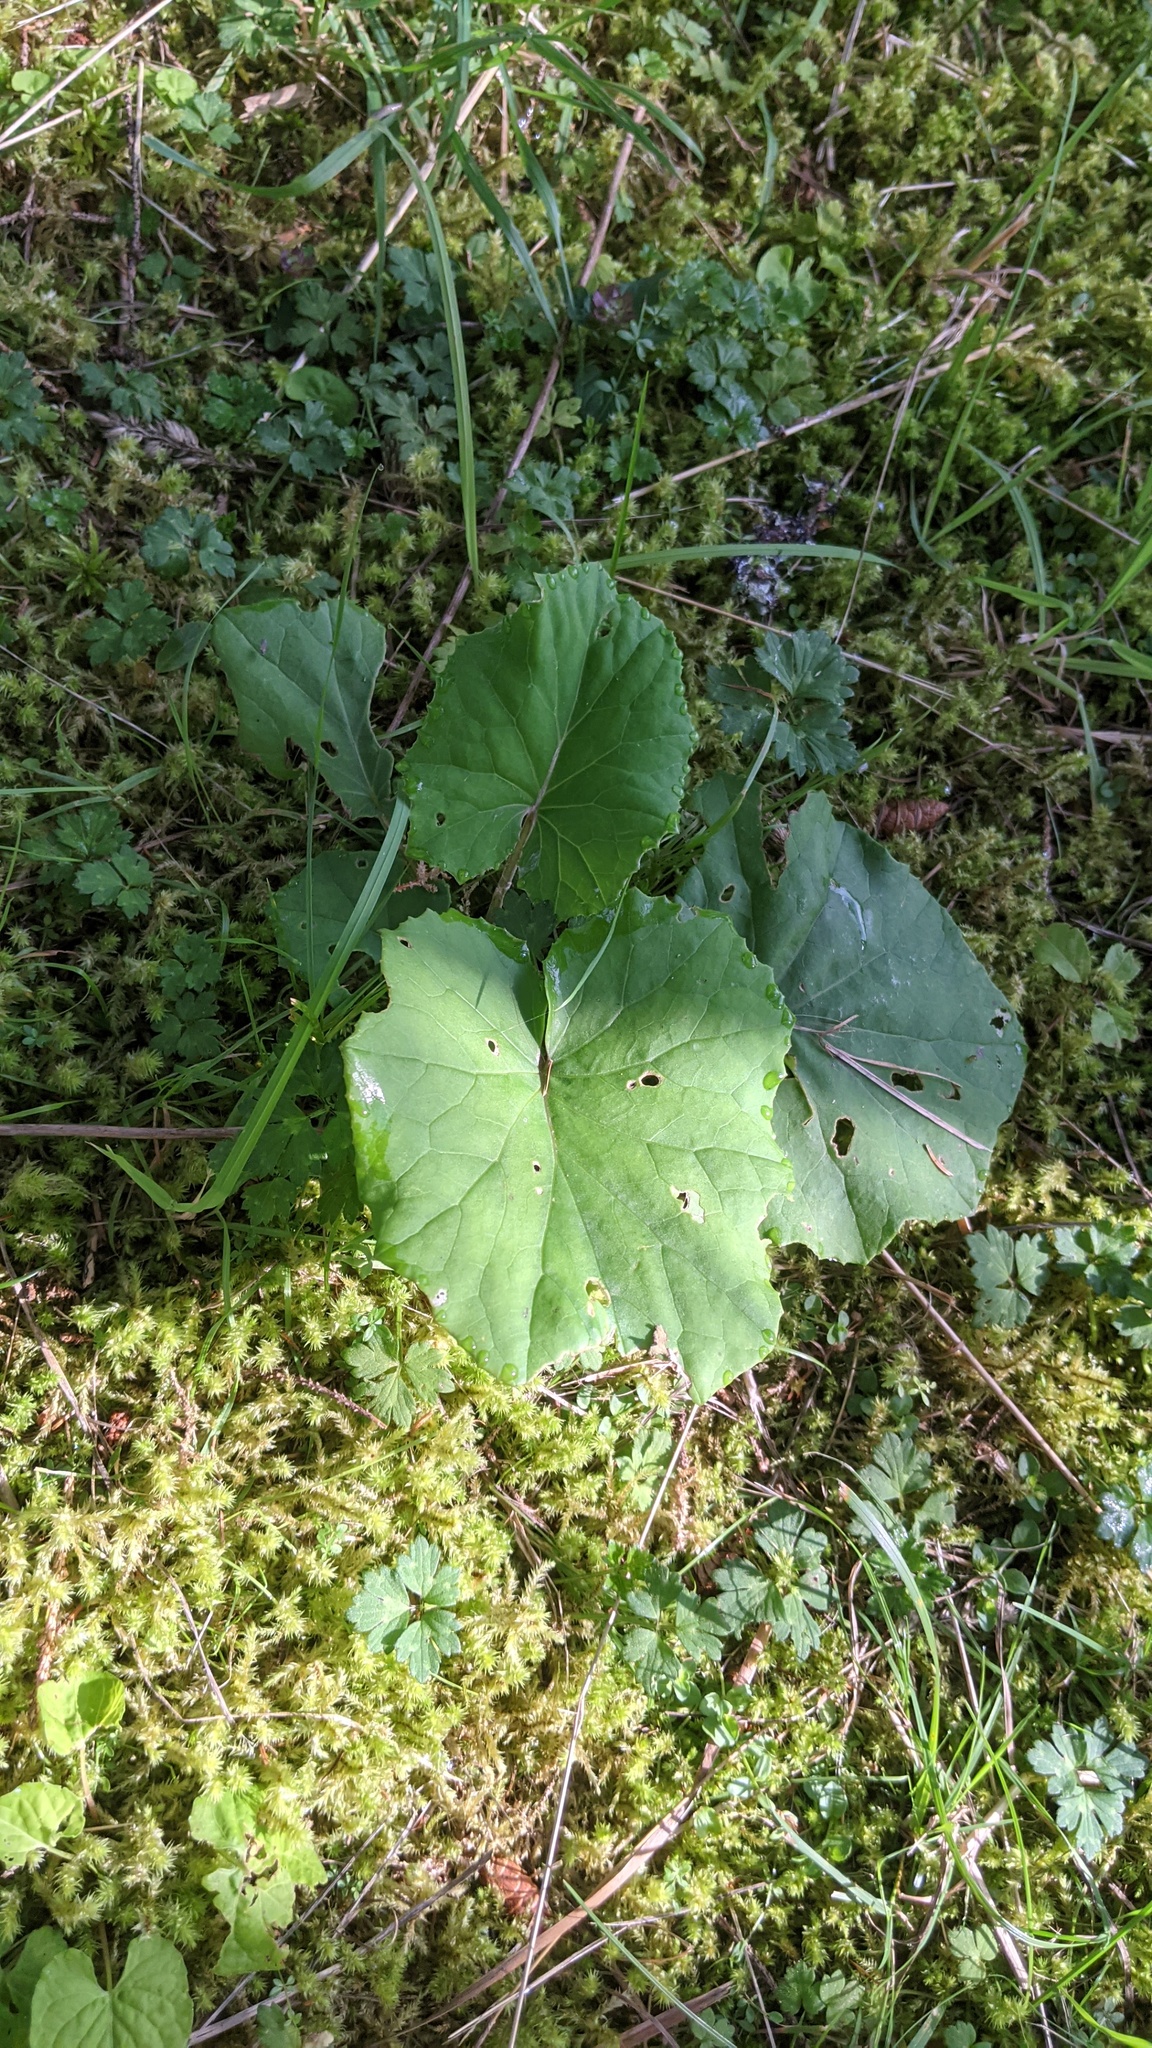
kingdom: Plantae
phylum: Tracheophyta
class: Magnoliopsida
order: Asterales
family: Asteraceae
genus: Tussilago
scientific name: Tussilago farfara
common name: Coltsfoot
